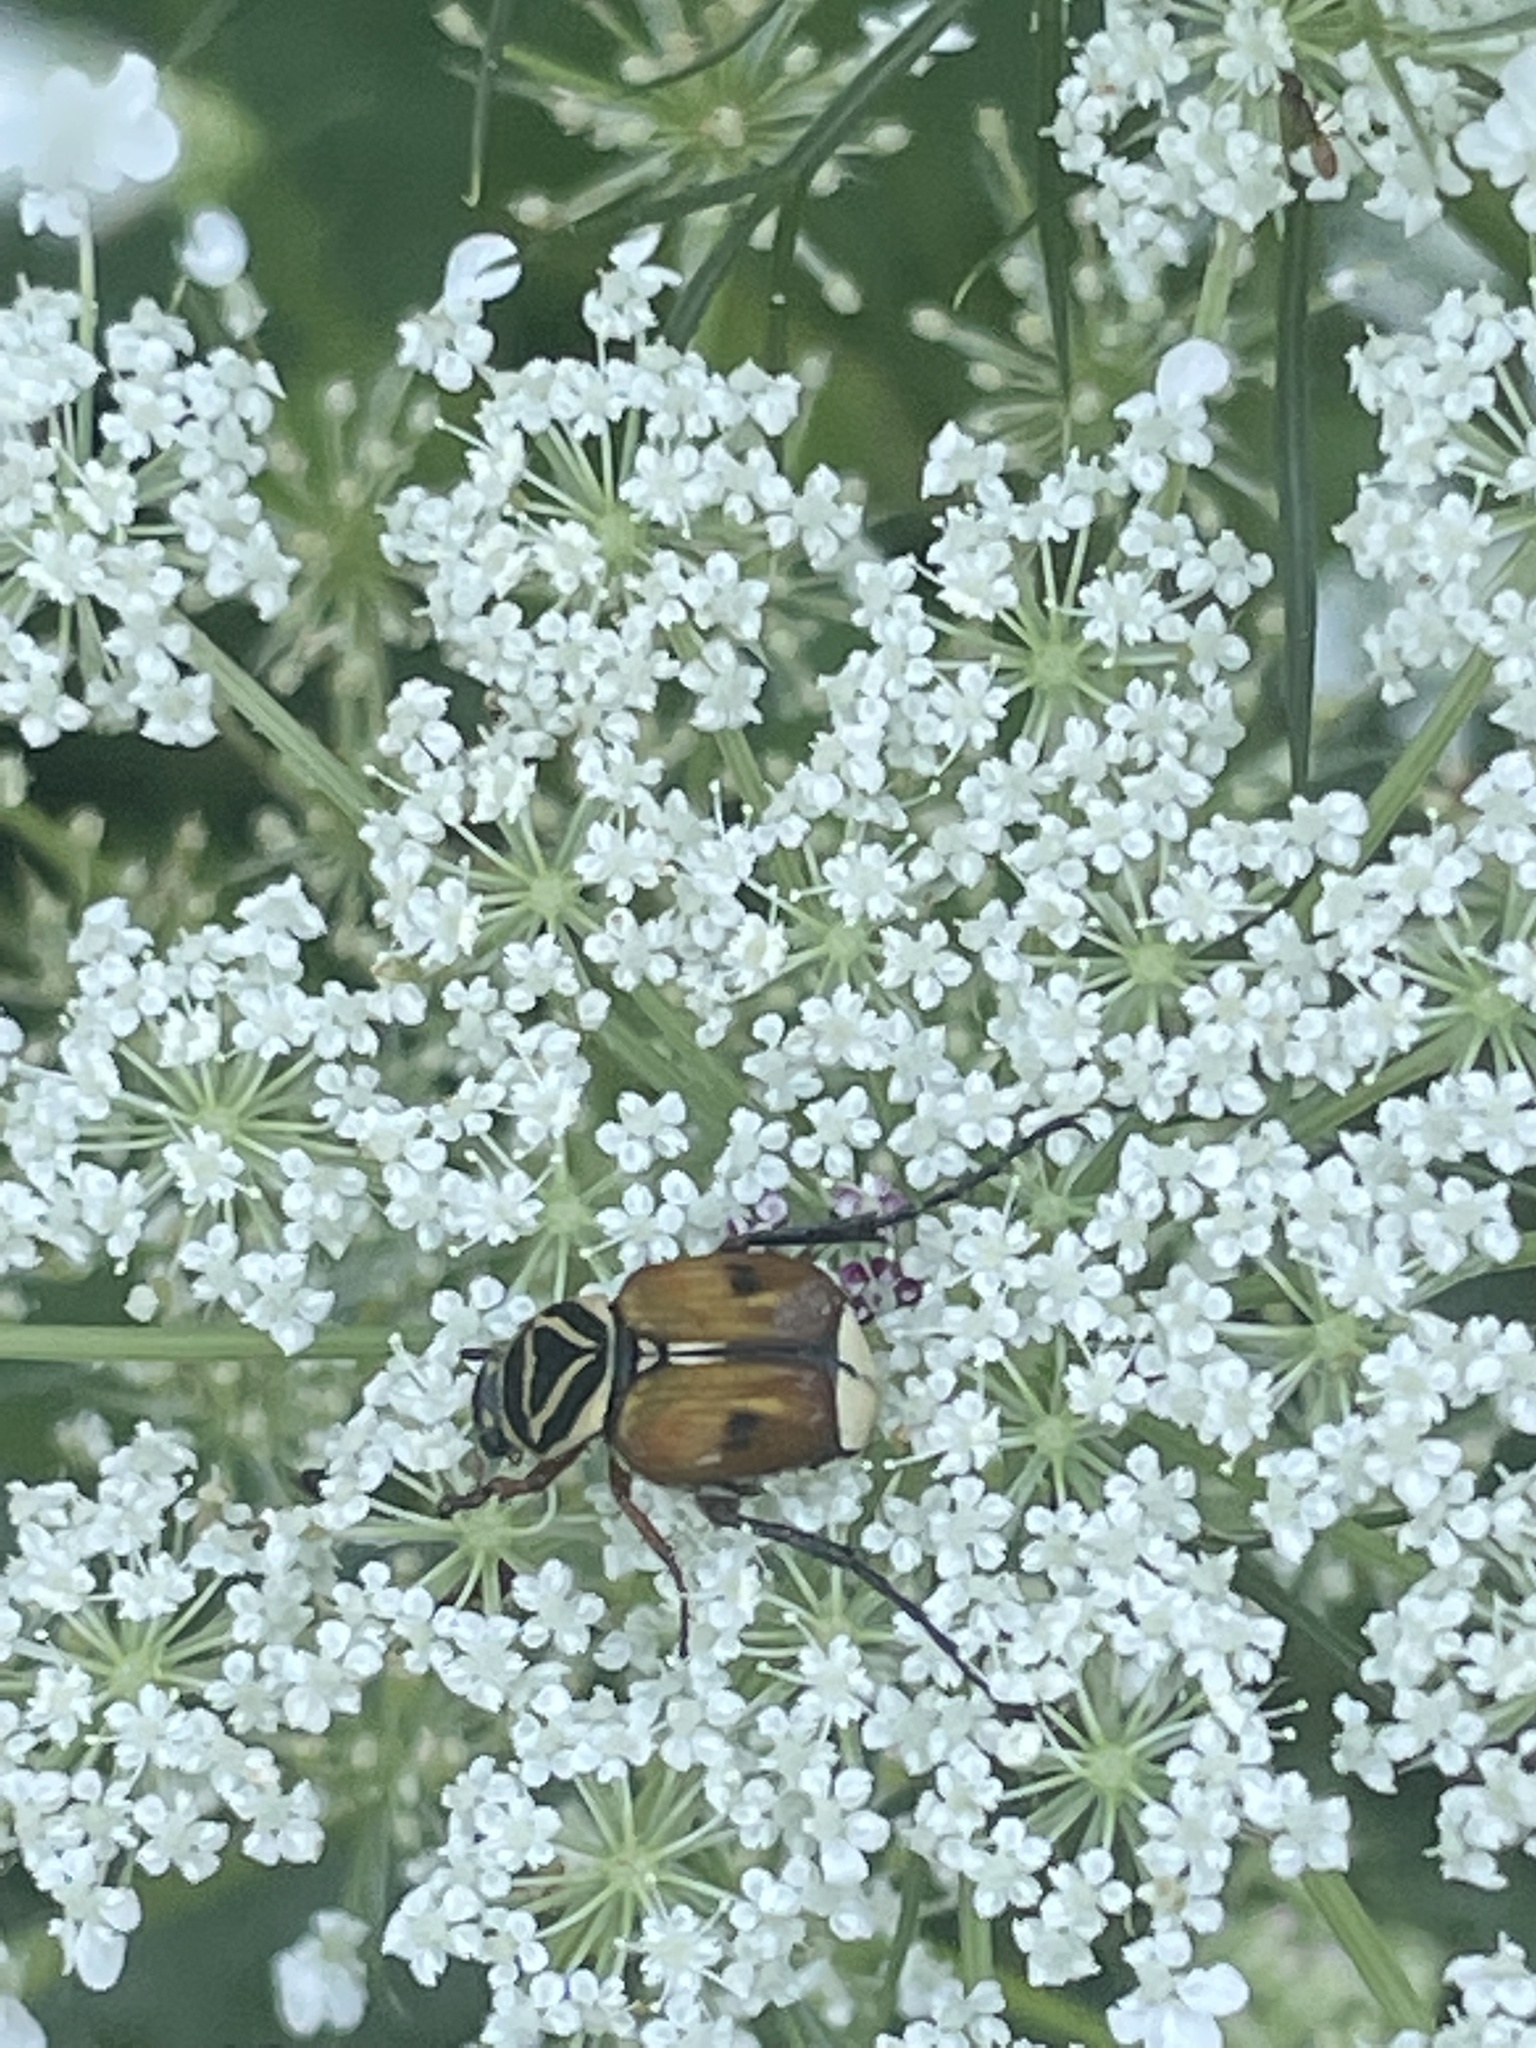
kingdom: Animalia
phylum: Arthropoda
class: Insecta
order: Coleoptera
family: Scarabaeidae
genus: Trigonopeltastes
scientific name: Trigonopeltastes delta
